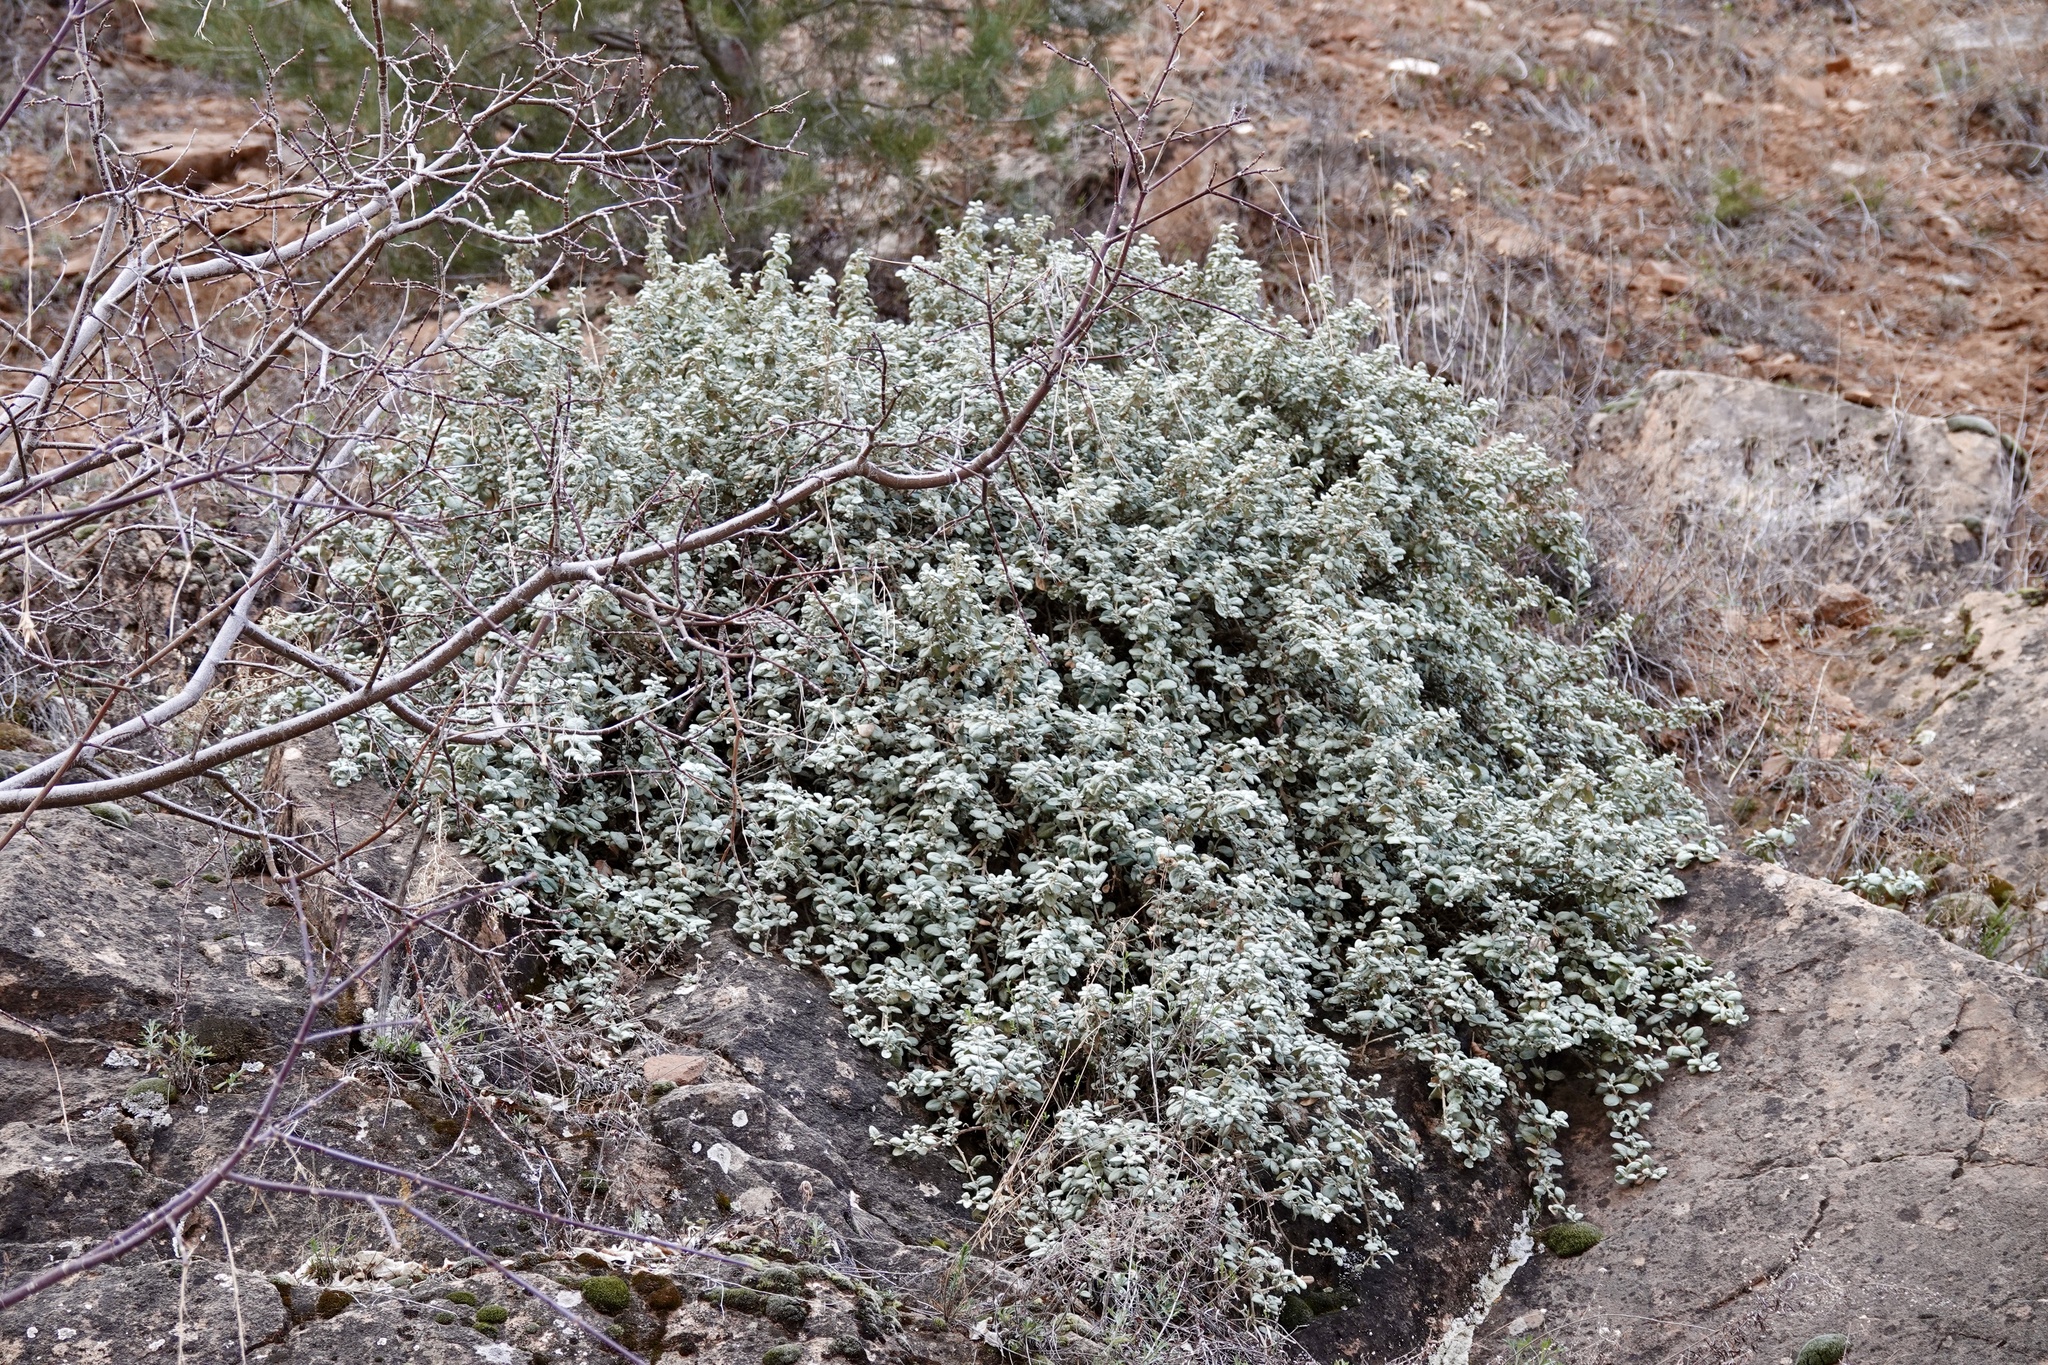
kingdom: Plantae
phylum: Tracheophyta
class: Magnoliopsida
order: Rosales
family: Elaeagnaceae
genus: Shepherdia
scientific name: Shepherdia rotundifolia
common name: Silverscale
